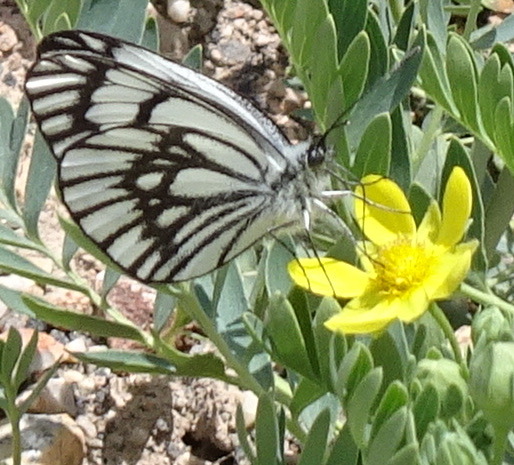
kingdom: Animalia
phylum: Arthropoda
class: Insecta
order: Lepidoptera
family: Pieridae
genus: Aporia
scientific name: Aporia leucodice
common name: Himalayan blackvein
